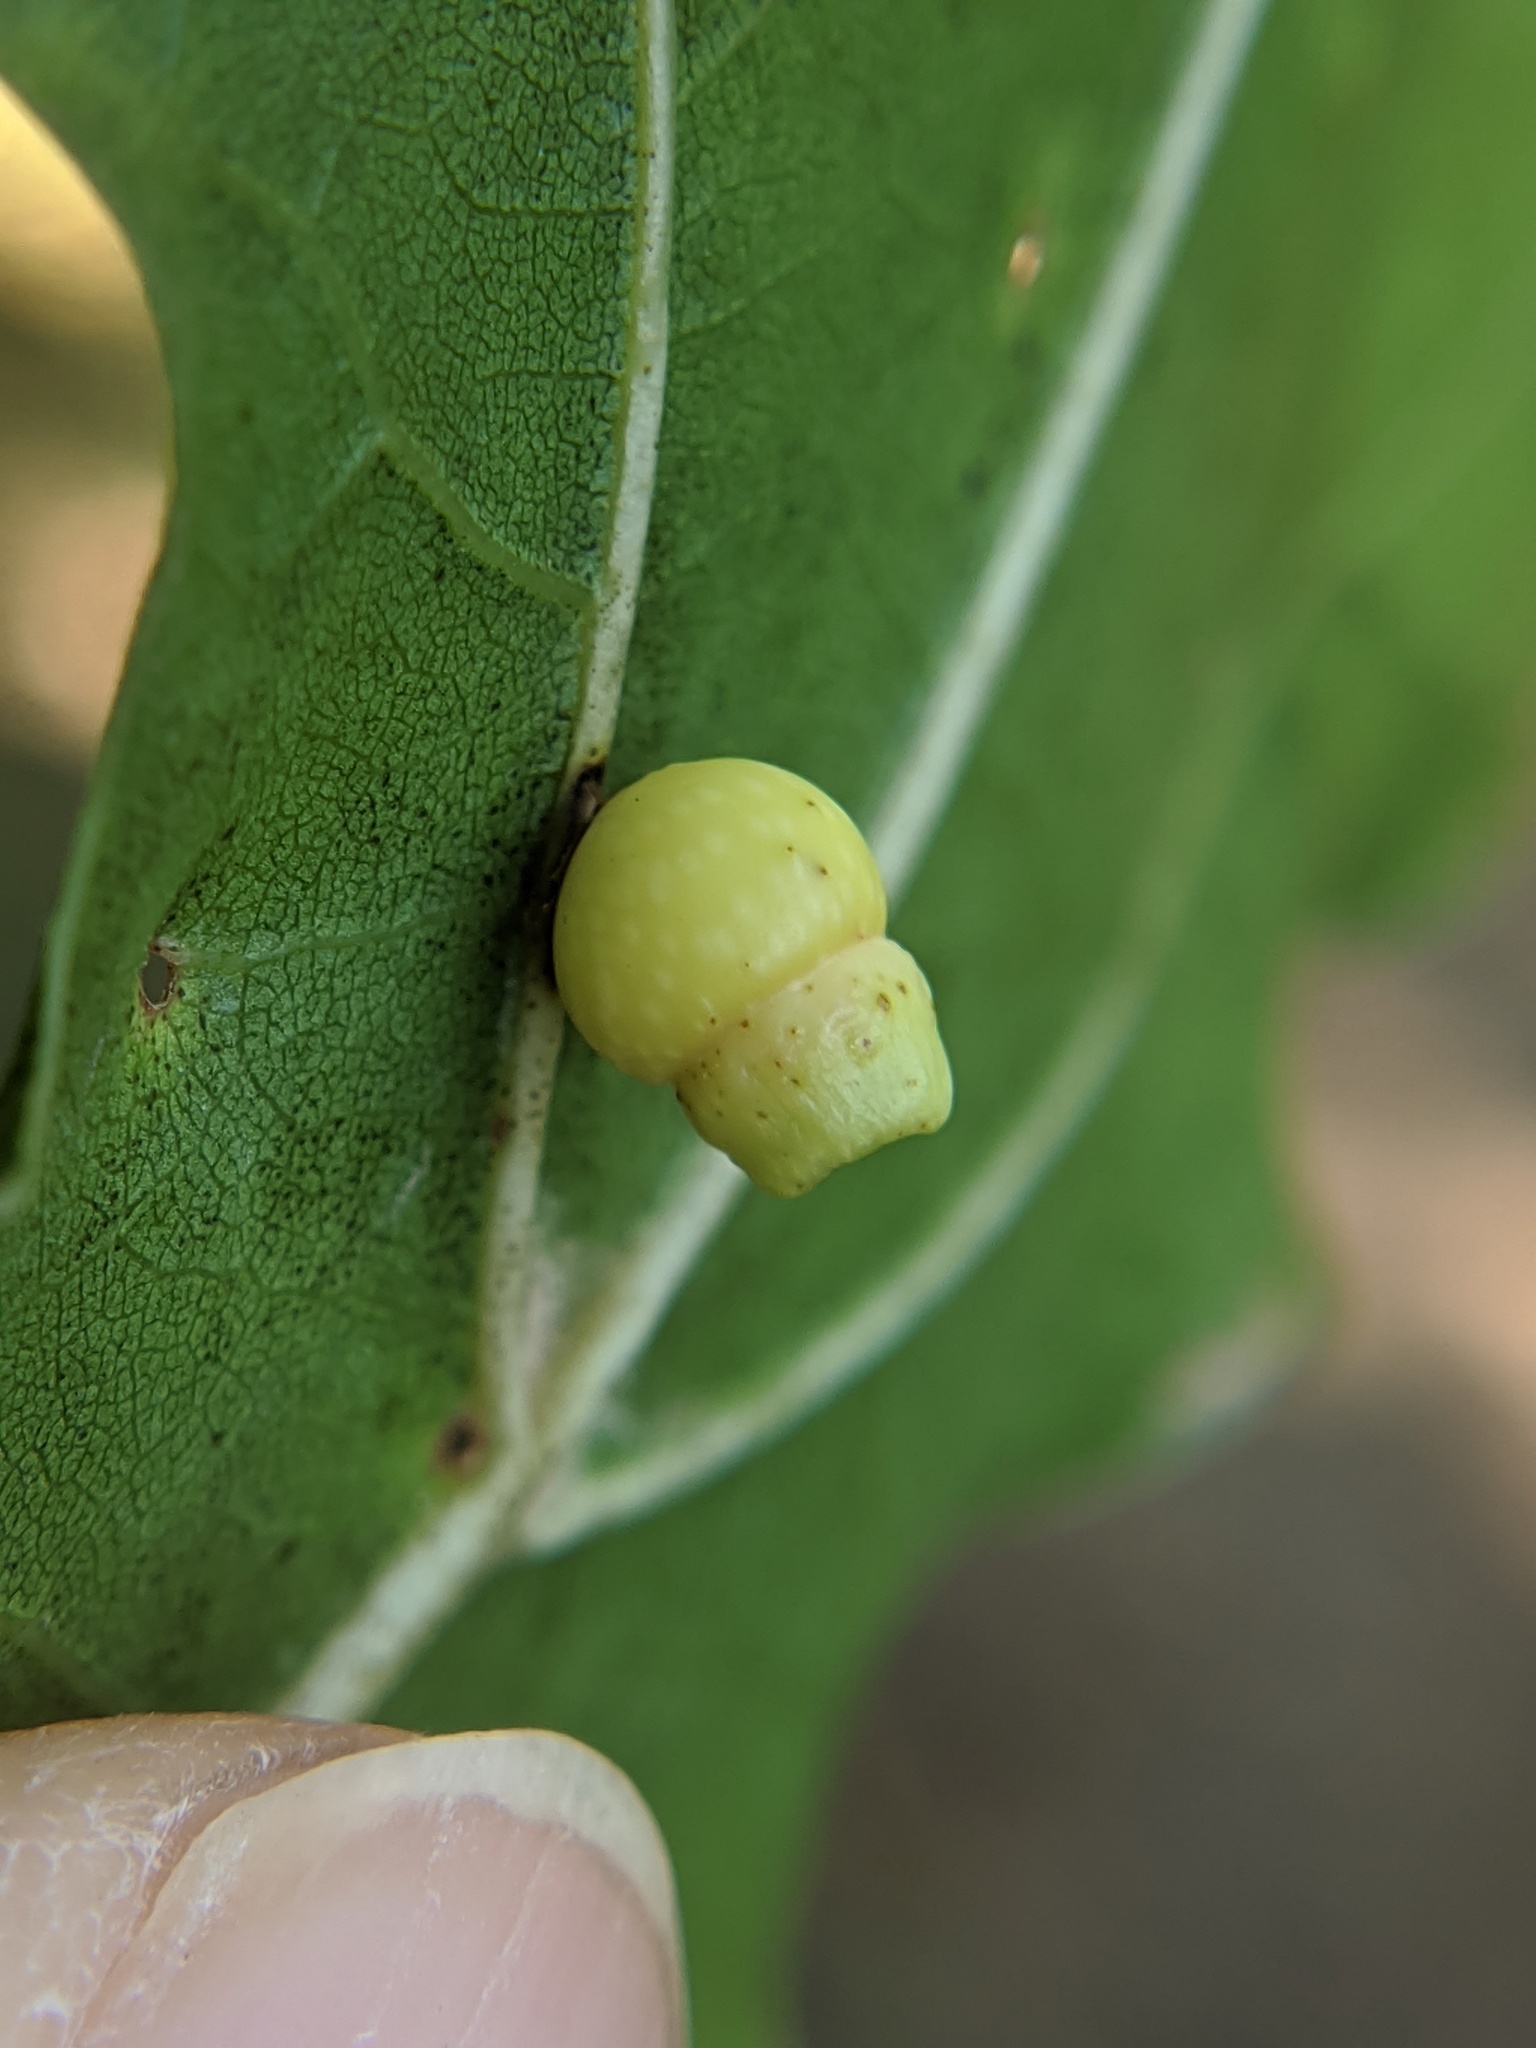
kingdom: Animalia
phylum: Arthropoda
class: Insecta
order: Hymenoptera
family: Cynipidae
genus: Kokkocynips
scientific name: Kokkocynips rileyi
